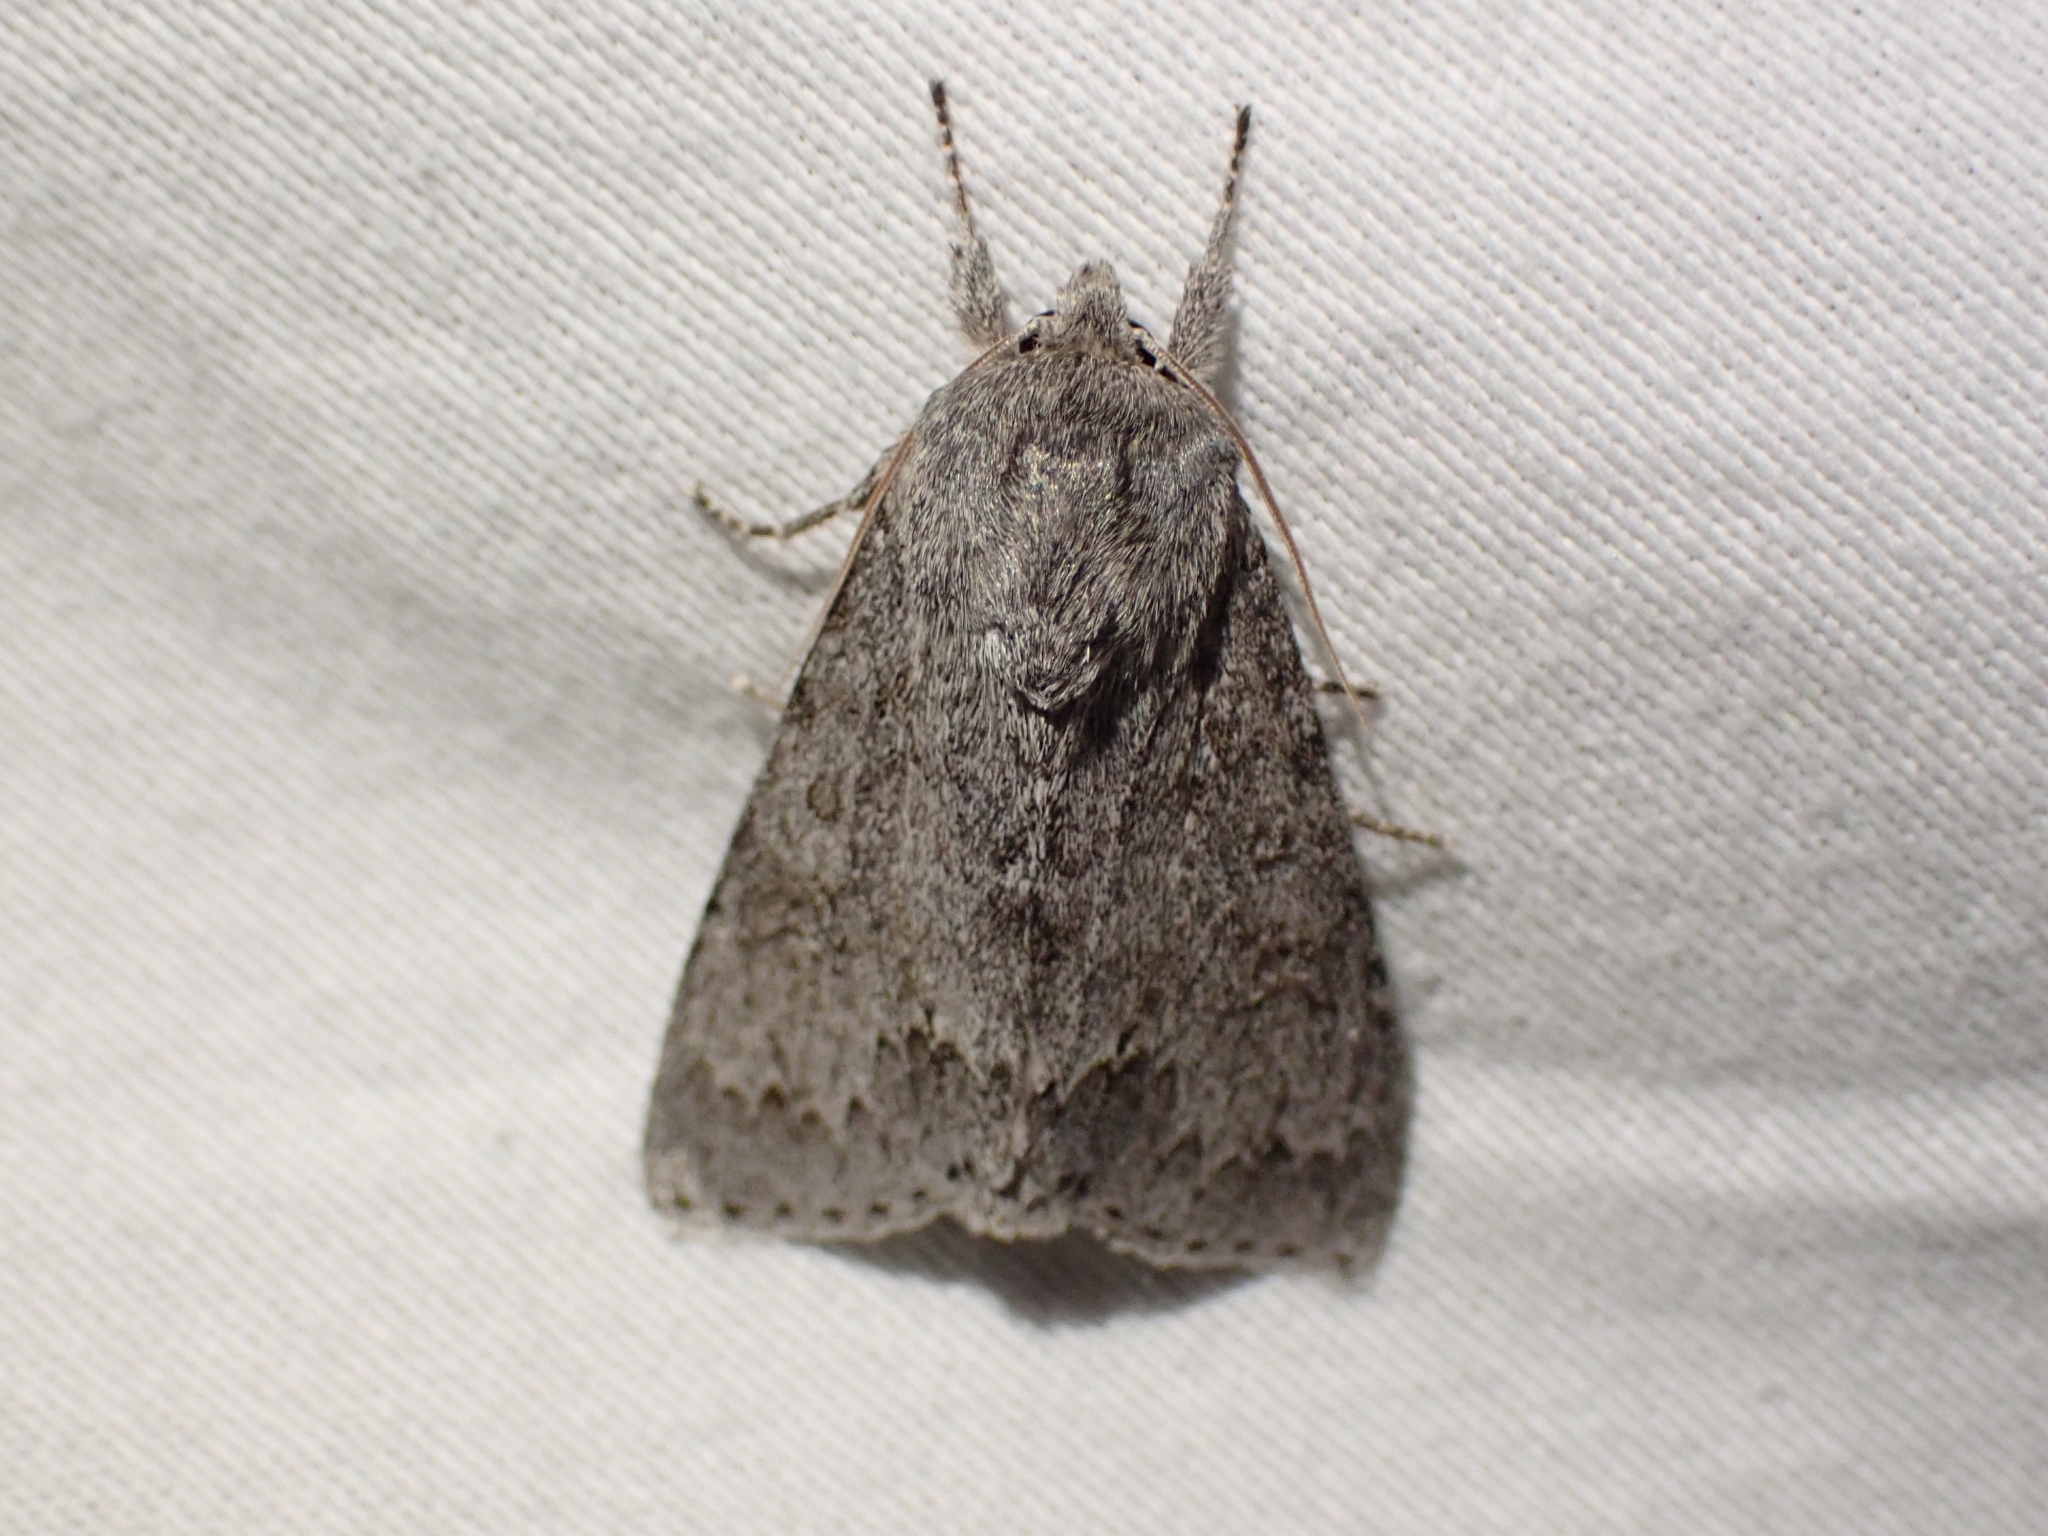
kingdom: Animalia
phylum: Arthropoda
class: Insecta
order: Lepidoptera
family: Noctuidae
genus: Acronicta
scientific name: Acronicta insita
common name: Large gray dagger
